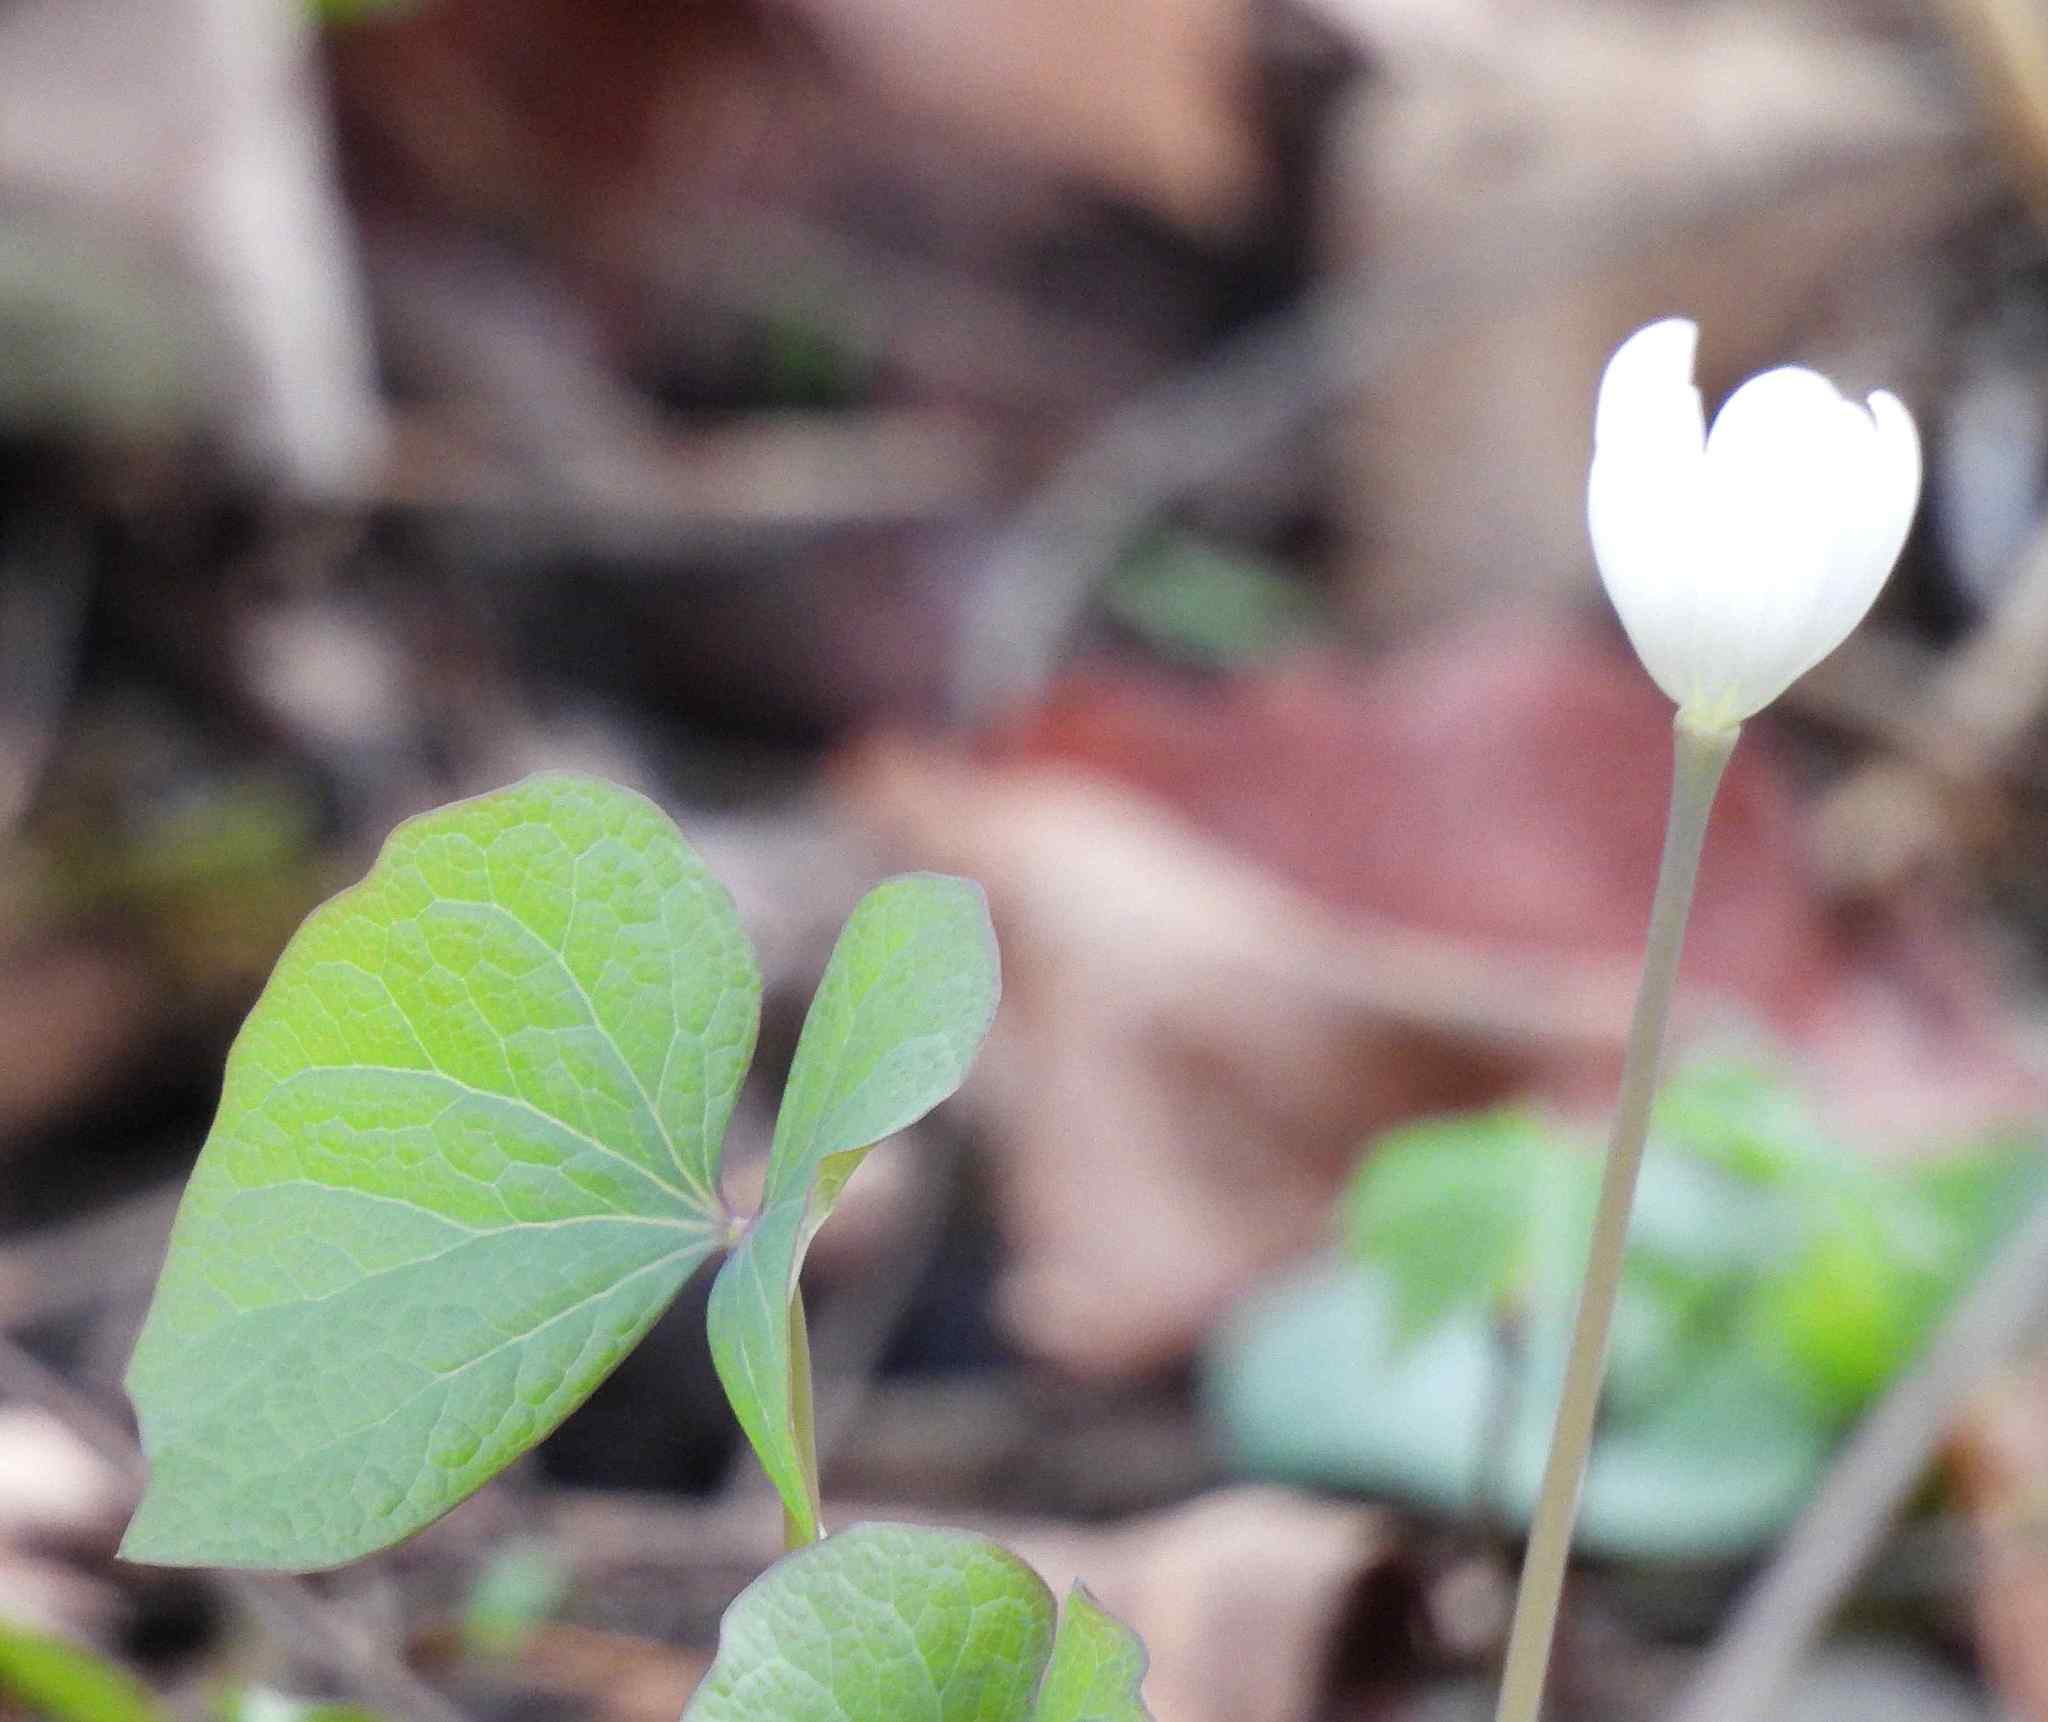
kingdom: Plantae
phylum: Tracheophyta
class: Magnoliopsida
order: Ranunculales
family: Berberidaceae
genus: Jeffersonia
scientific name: Jeffersonia diphylla
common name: Rheumatism-root
